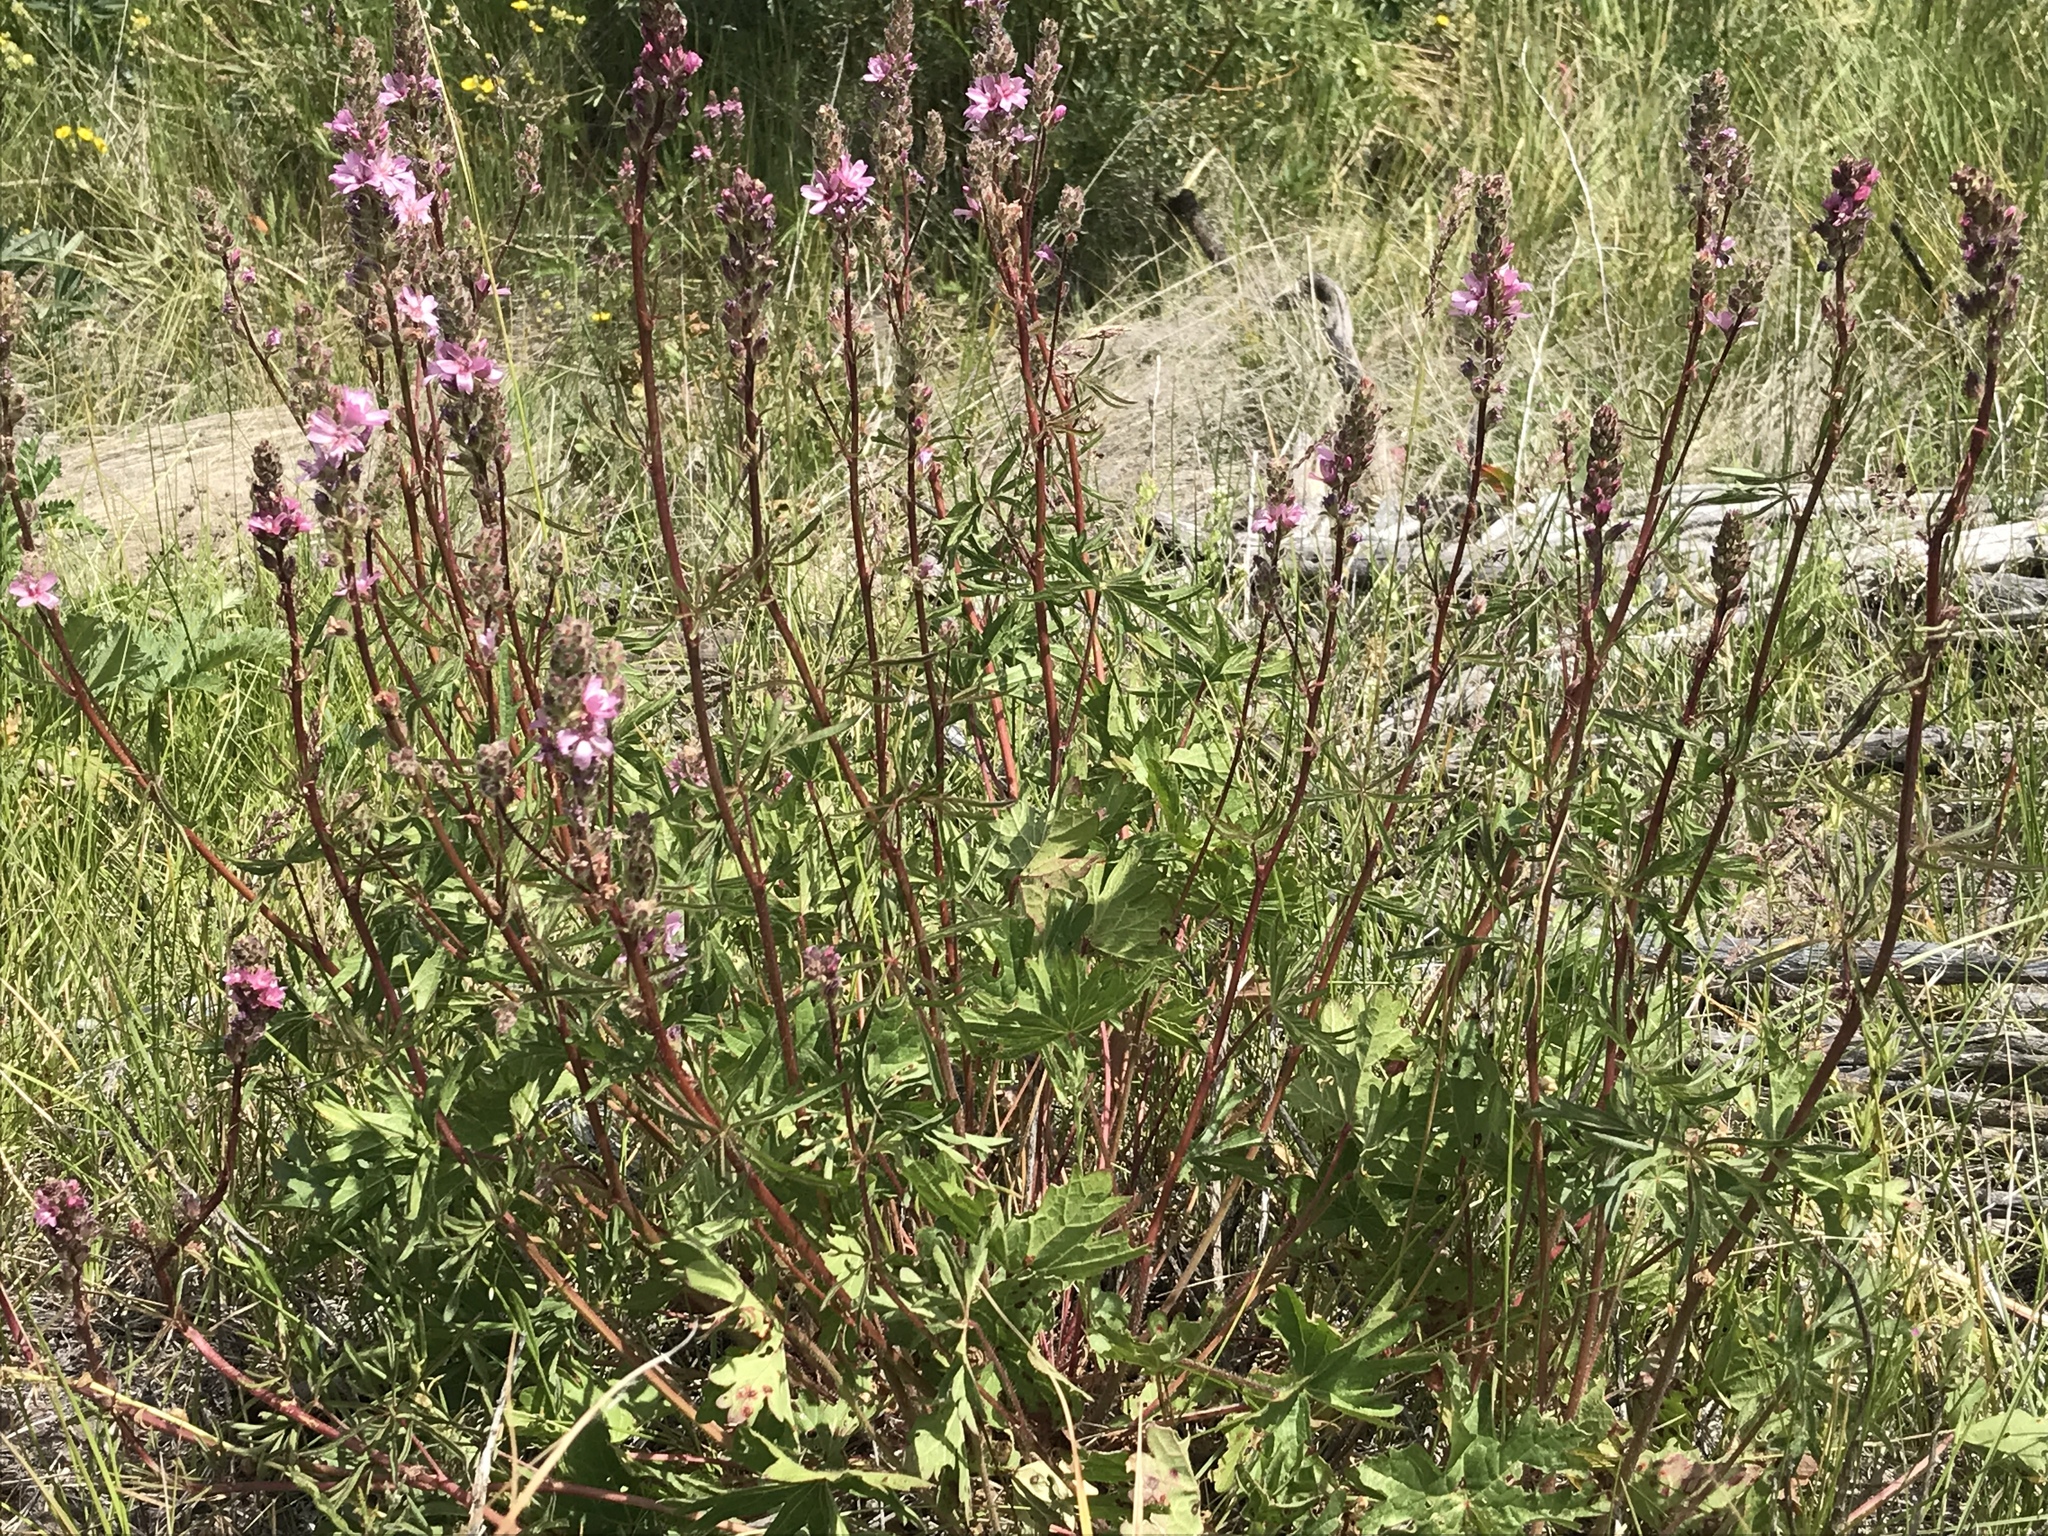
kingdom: Plantae
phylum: Tracheophyta
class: Magnoliopsida
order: Malvales
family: Malvaceae
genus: Sidalcea
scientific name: Sidalcea oregana
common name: Oregon checker-mallow
